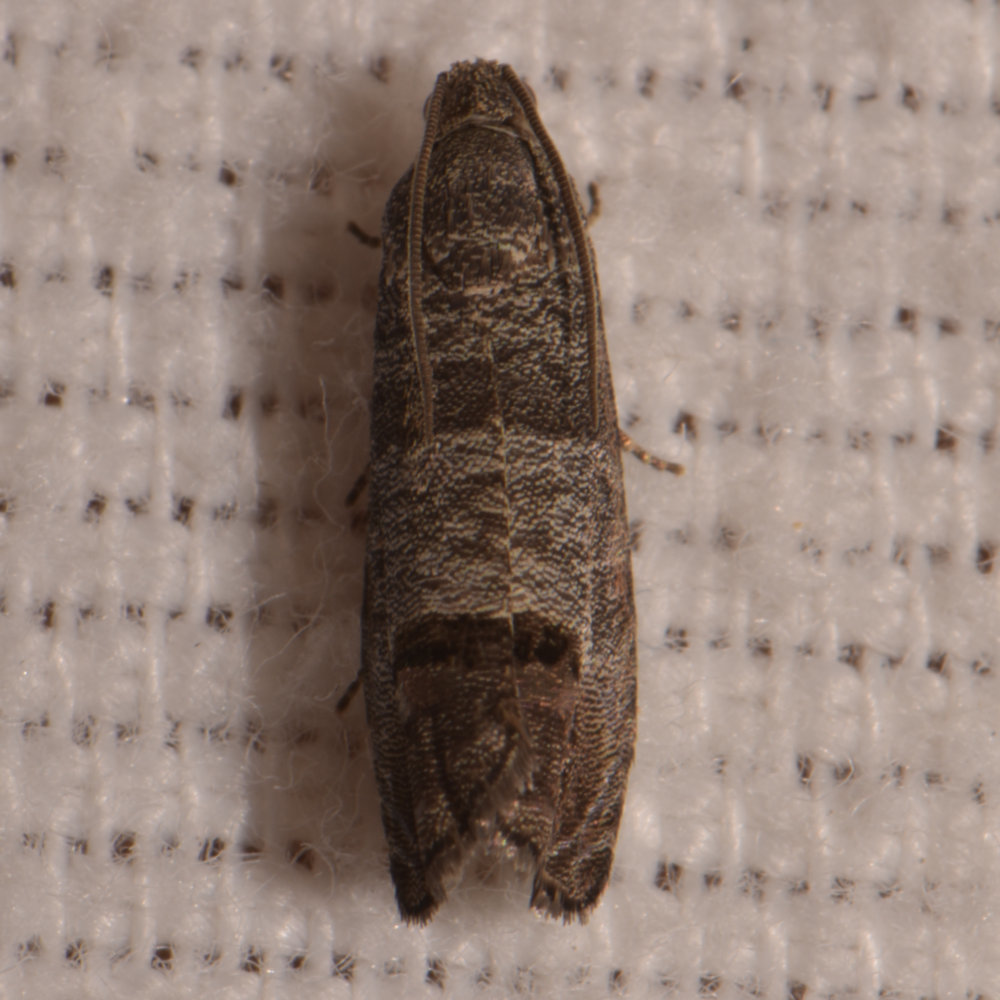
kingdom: Animalia
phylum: Arthropoda
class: Insecta
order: Lepidoptera
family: Tortricidae
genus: Cydia
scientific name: Cydia pomonella
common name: Codling moth
